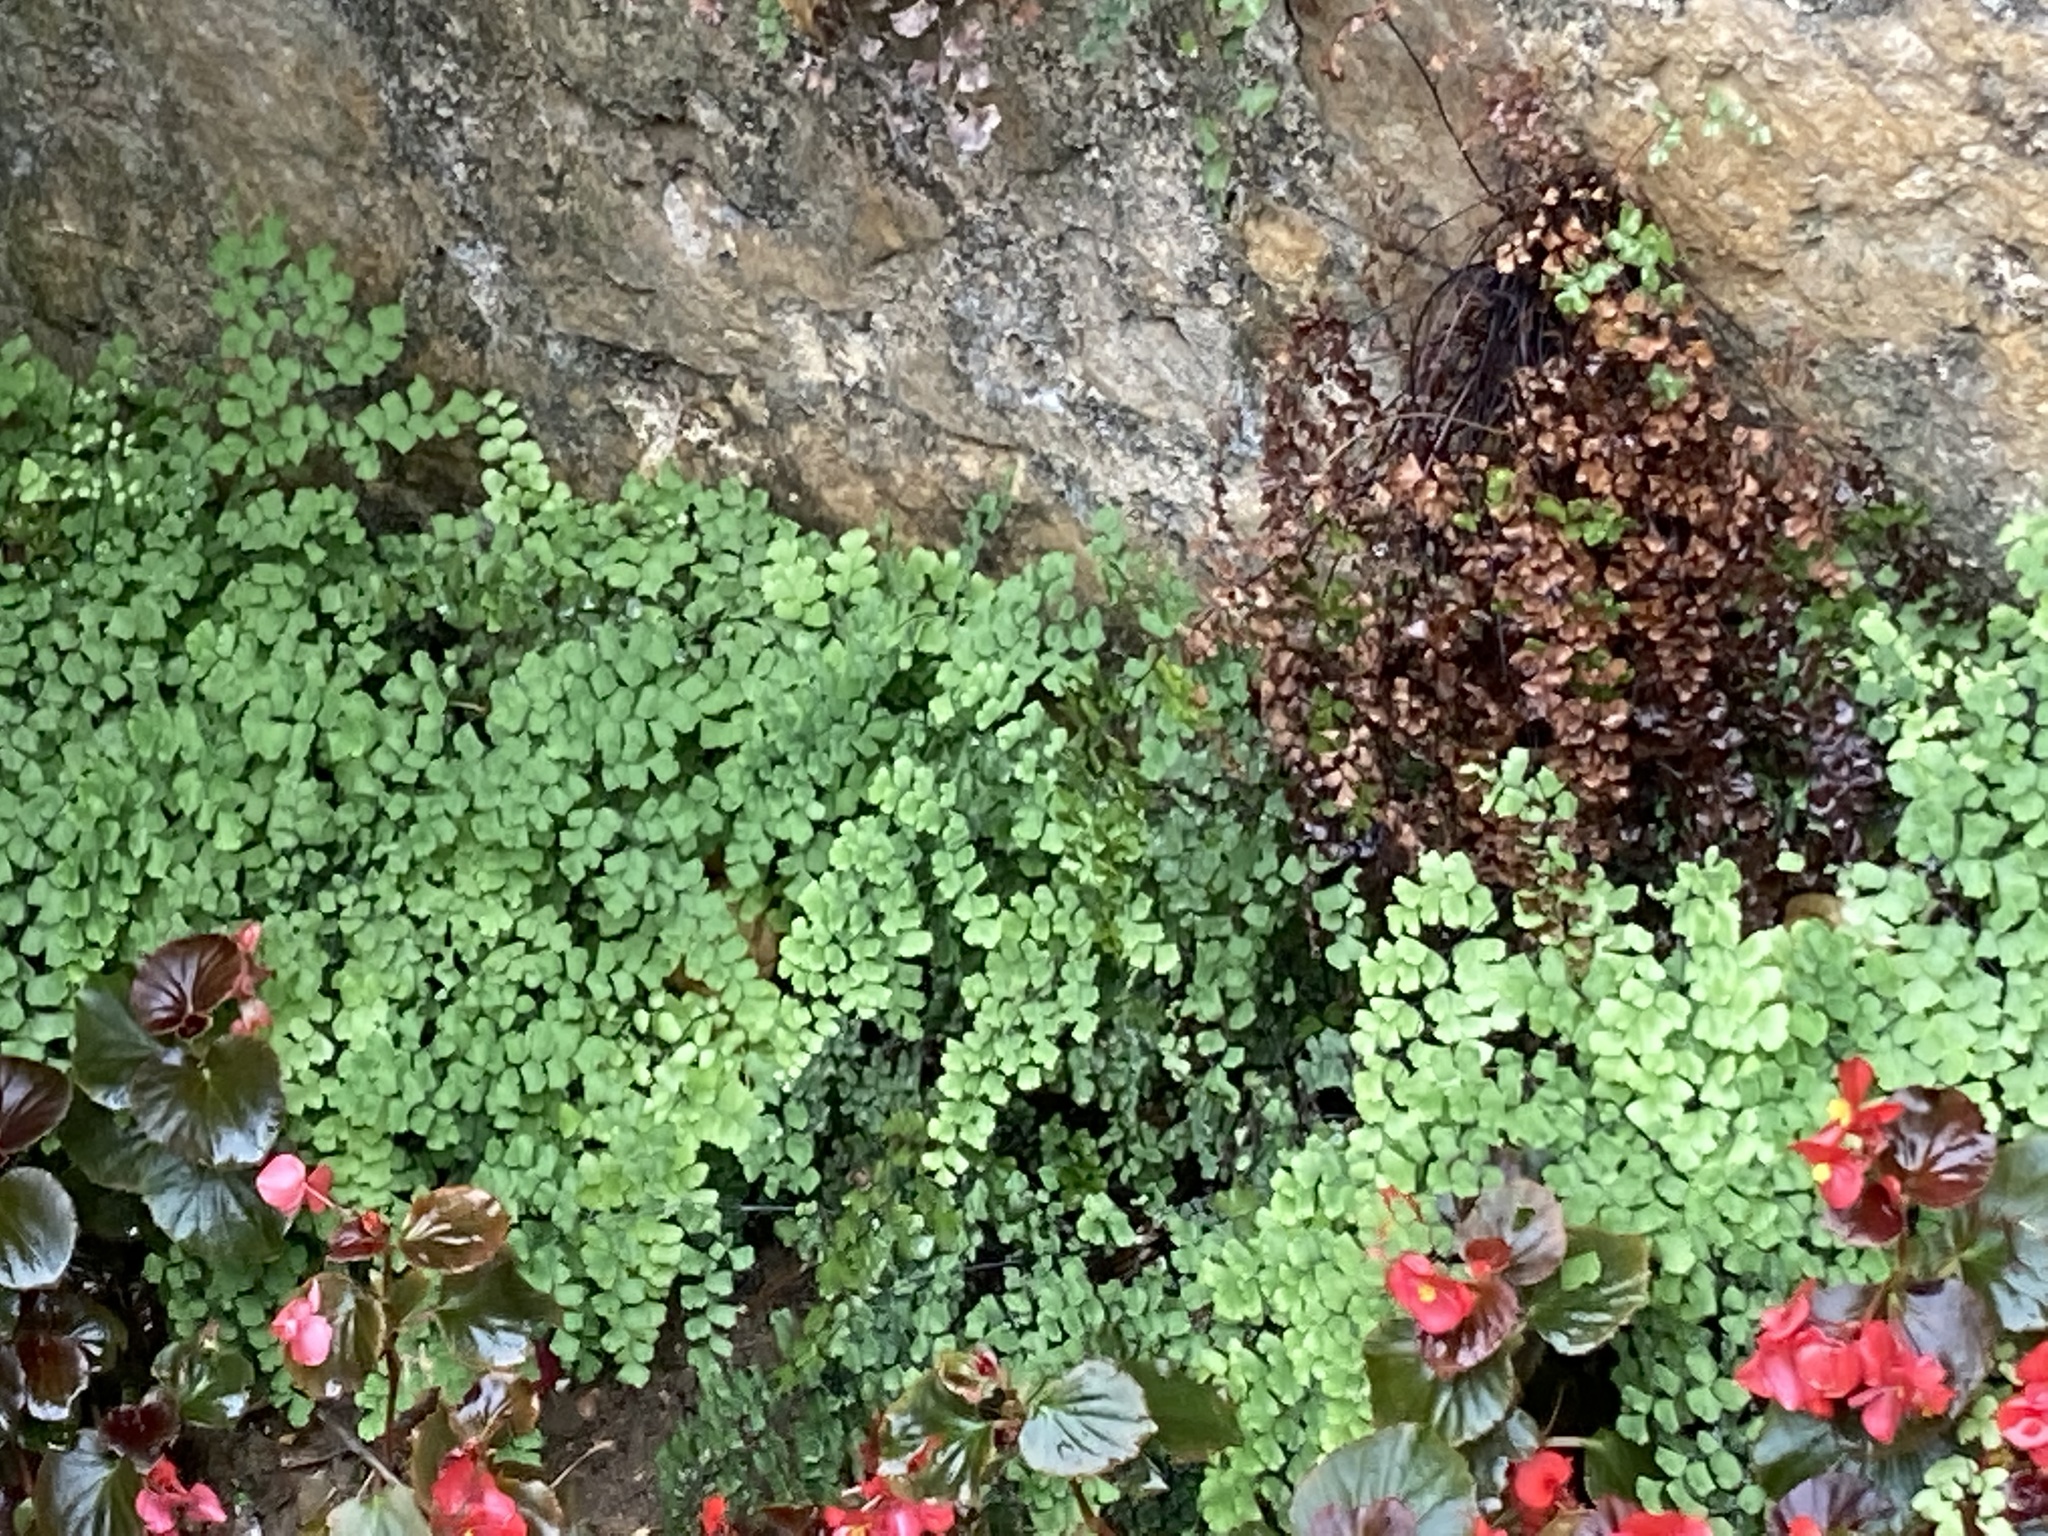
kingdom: Plantae
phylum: Tracheophyta
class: Polypodiopsida
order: Polypodiales
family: Pteridaceae
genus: Adiantum
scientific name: Adiantum capillus-veneris
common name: Maidenhair fern
